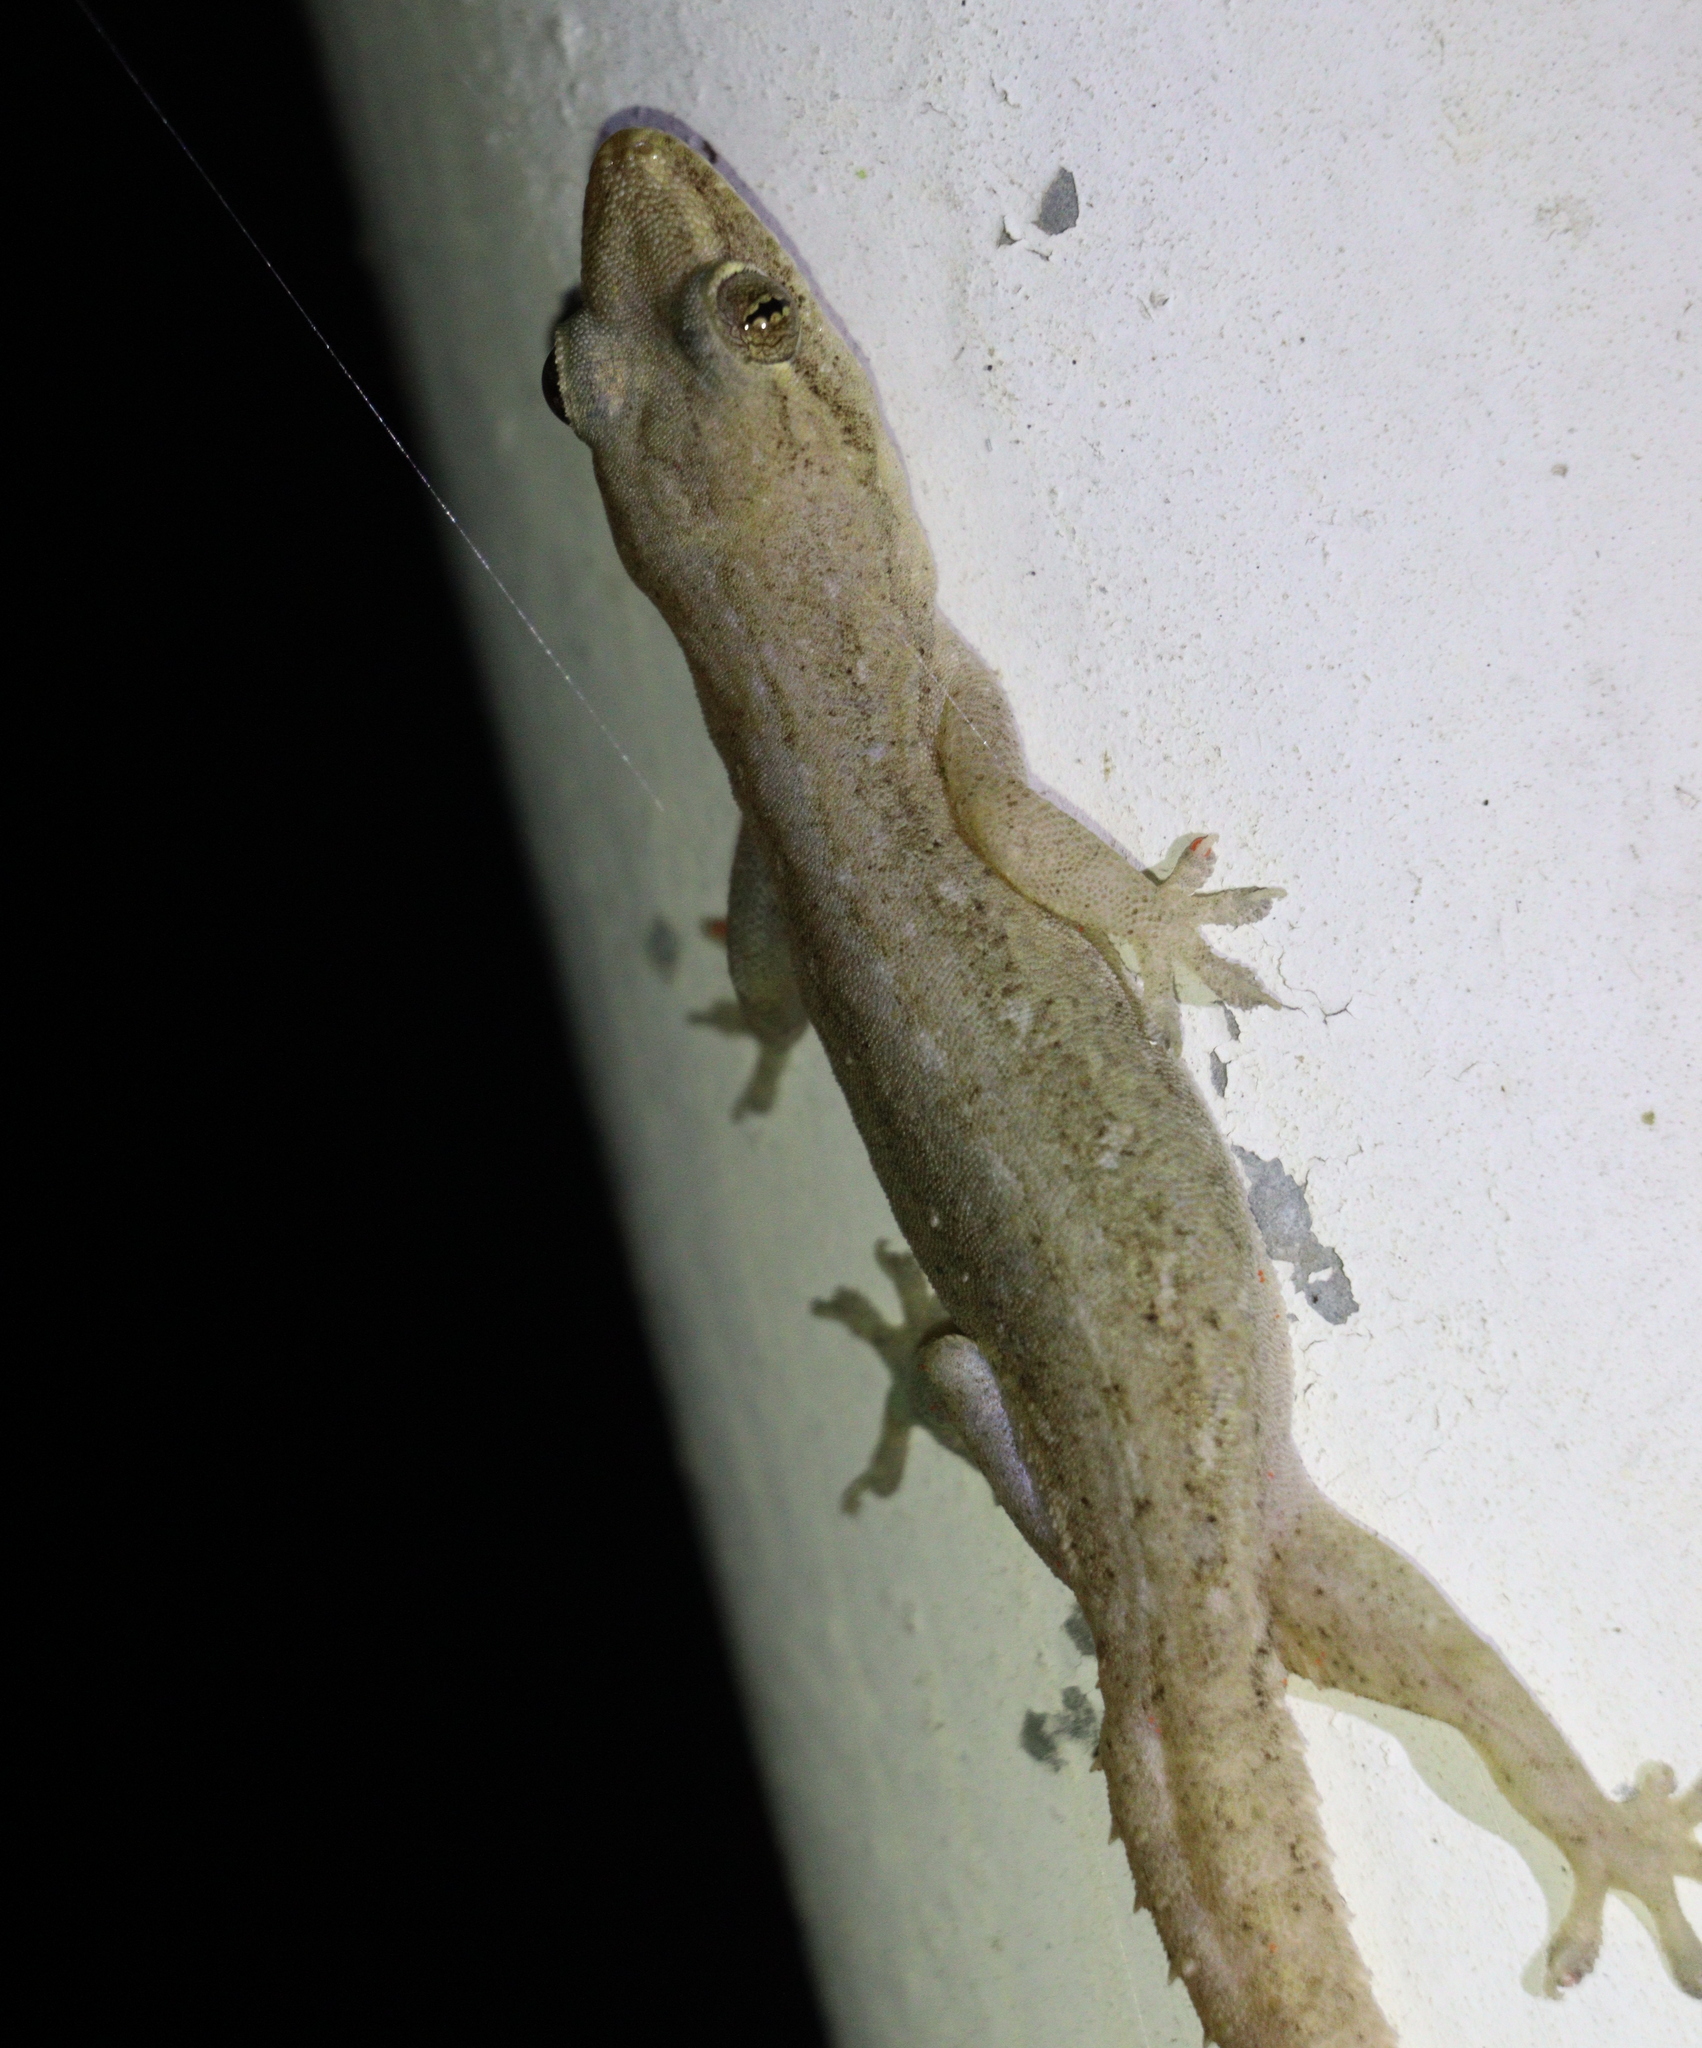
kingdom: Animalia
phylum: Chordata
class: Squamata
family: Gekkonidae
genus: Hemidactylus
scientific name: Hemidactylus frenatus
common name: Common house gecko
